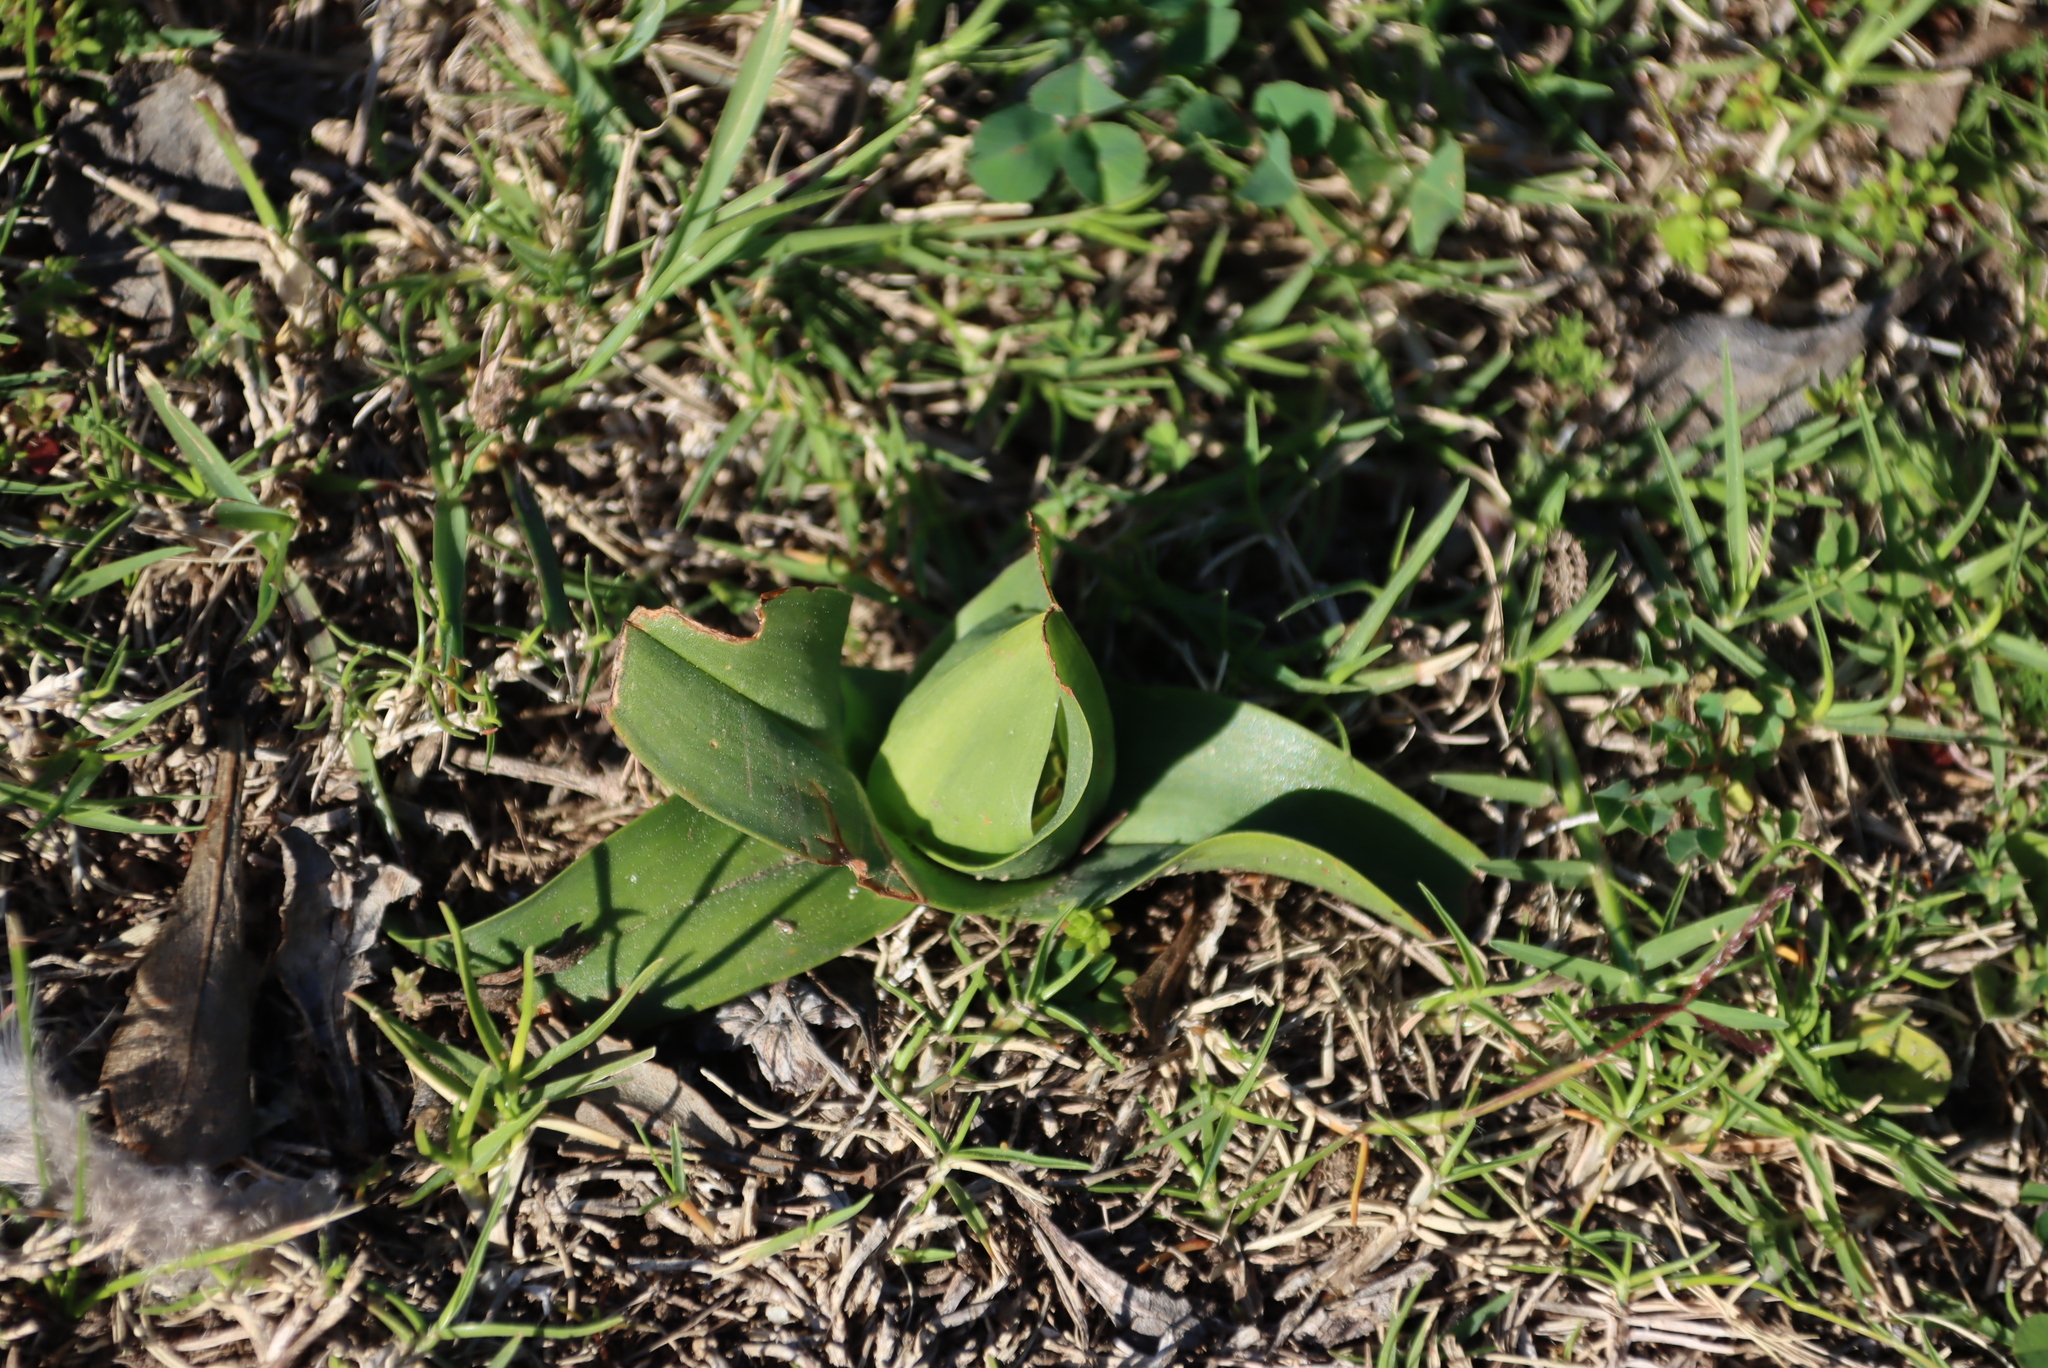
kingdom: Plantae
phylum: Tracheophyta
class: Liliopsida
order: Liliales
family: Colchicaceae
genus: Colchicum
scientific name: Colchicum eucomoides
